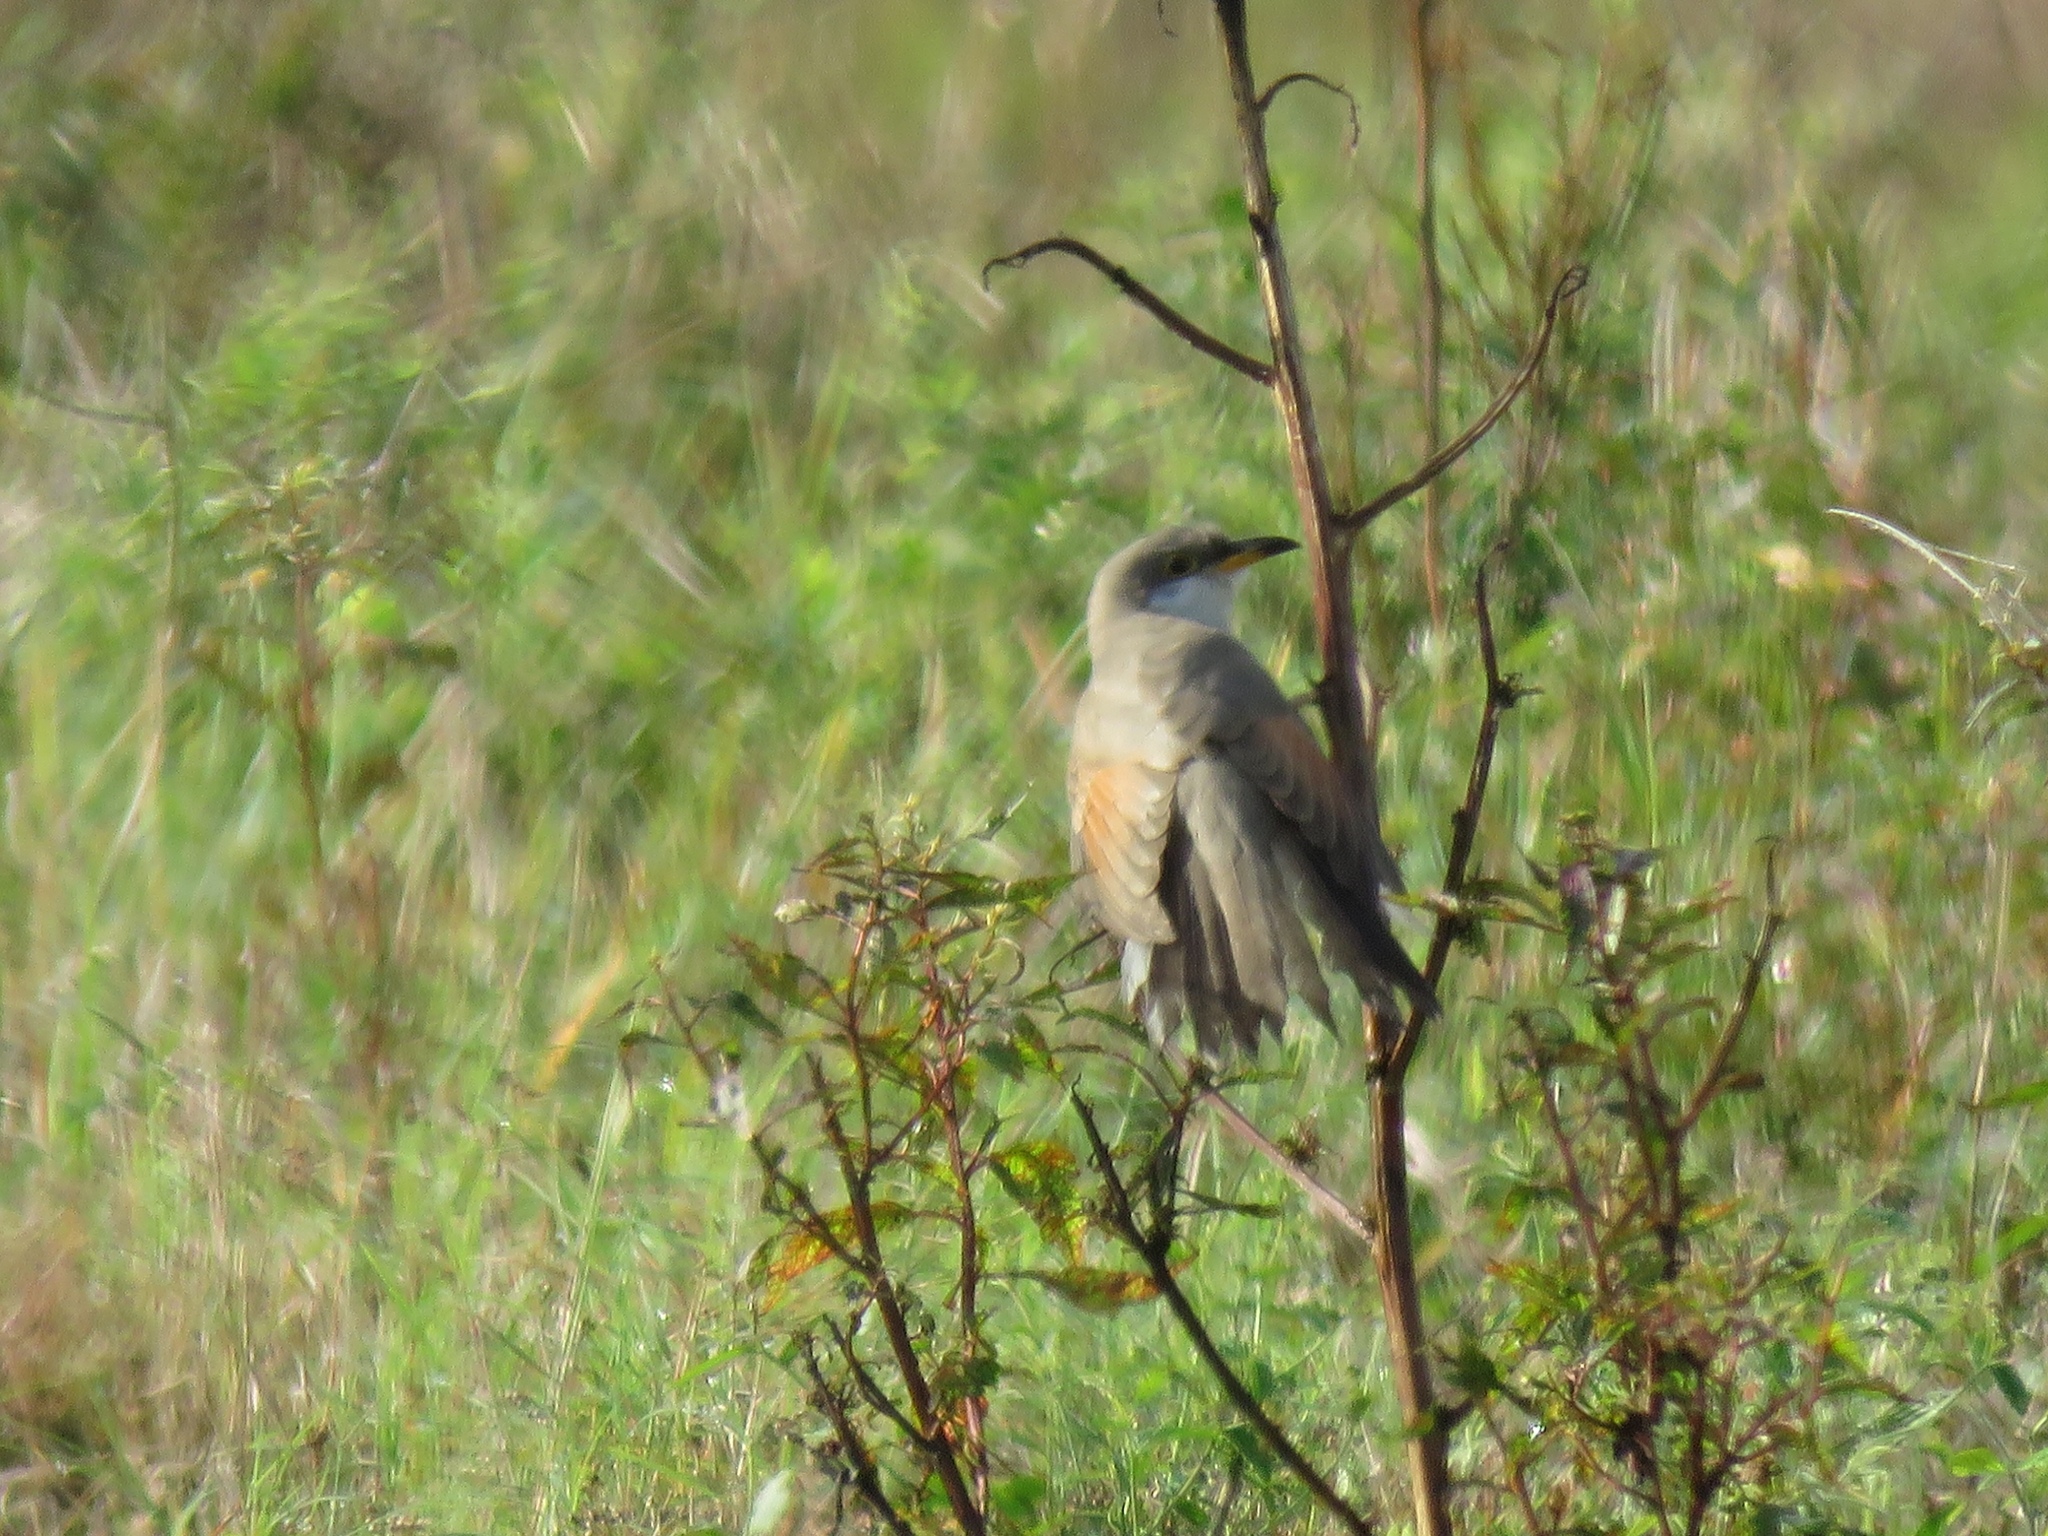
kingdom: Animalia
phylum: Chordata
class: Aves
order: Cuculiformes
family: Cuculidae
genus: Coccyzus
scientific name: Coccyzus americanus
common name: Yellow-billed cuckoo
